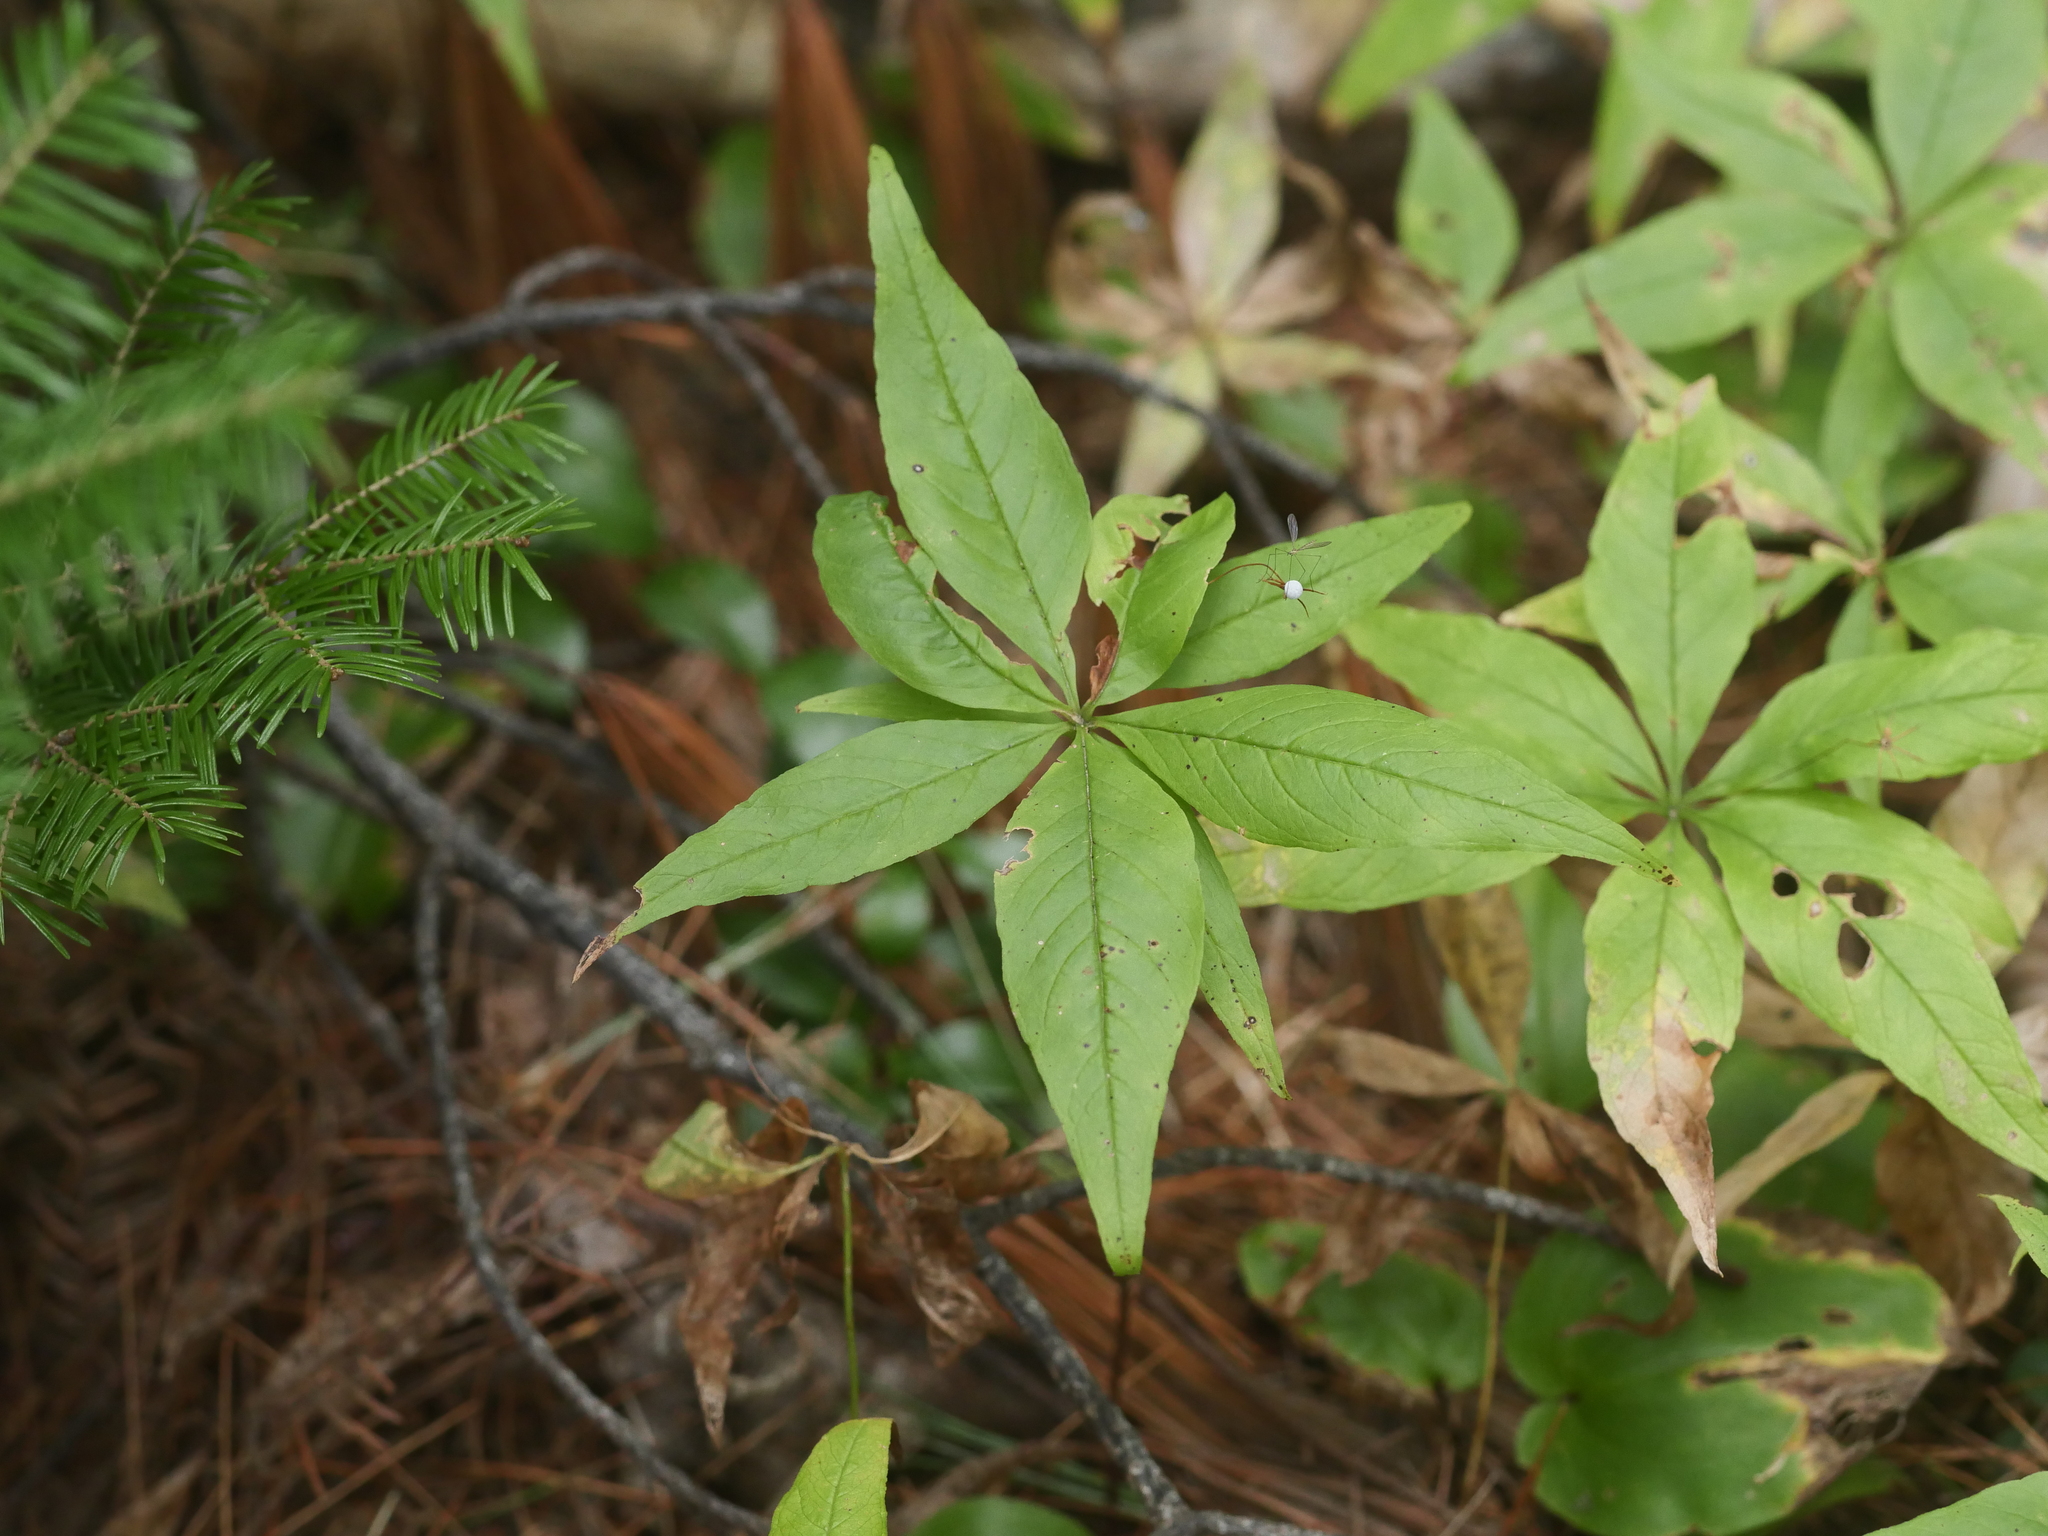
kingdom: Plantae
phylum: Tracheophyta
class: Magnoliopsida
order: Ericales
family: Primulaceae
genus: Lysimachia
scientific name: Lysimachia borealis
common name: American starflower
